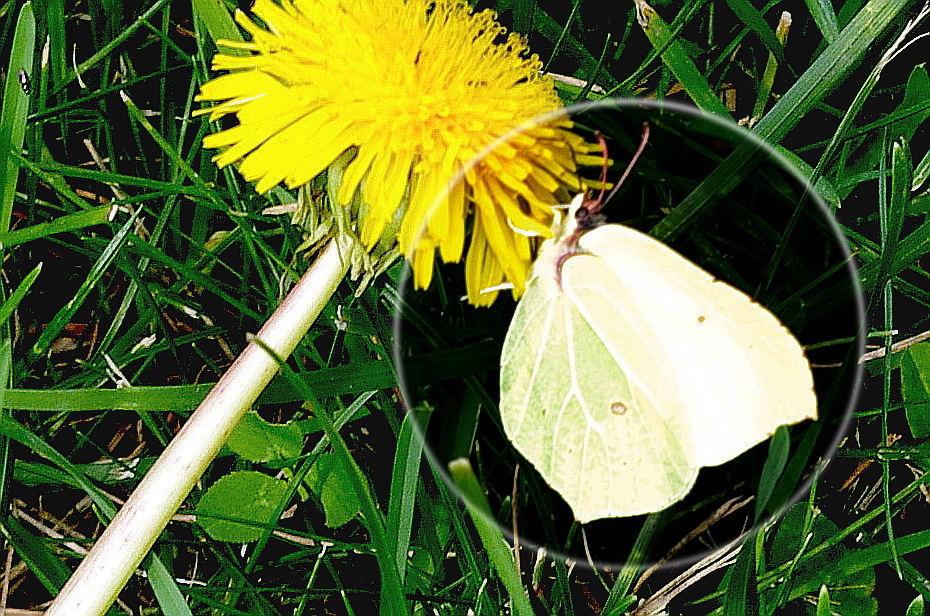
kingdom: Animalia
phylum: Arthropoda
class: Insecta
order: Lepidoptera
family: Pieridae
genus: Gonepteryx
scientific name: Gonepteryx rhamni
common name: Brimstone
